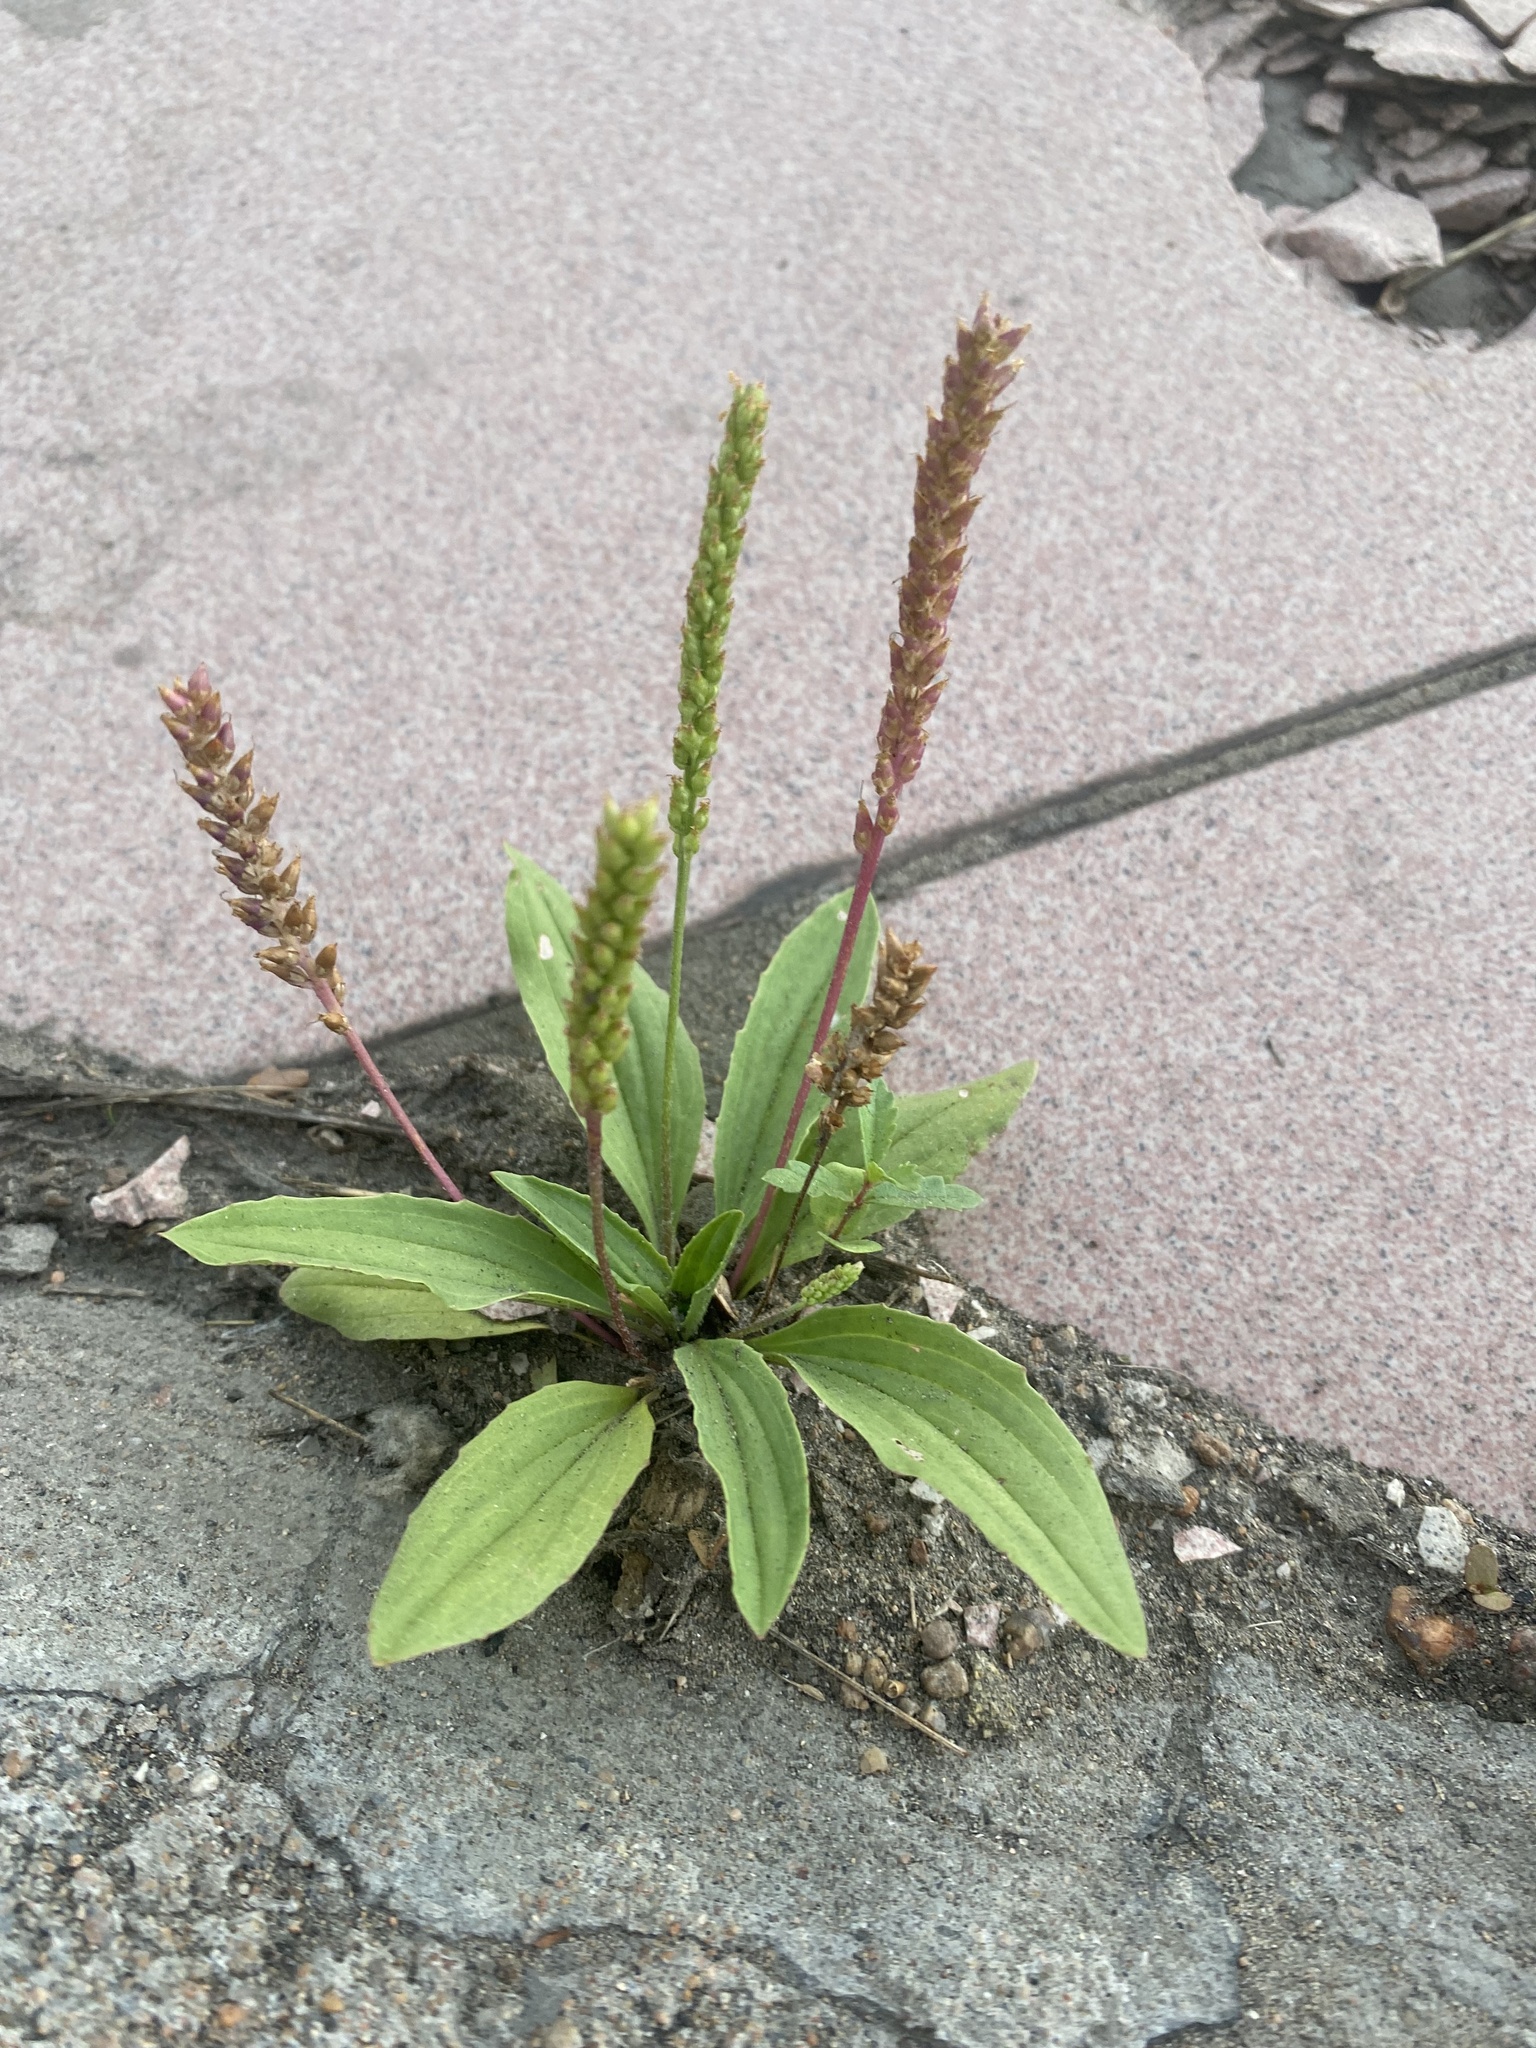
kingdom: Plantae
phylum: Tracheophyta
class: Magnoliopsida
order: Lamiales
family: Plantaginaceae
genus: Plantago
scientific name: Plantago depressa
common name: Depressed plantain
